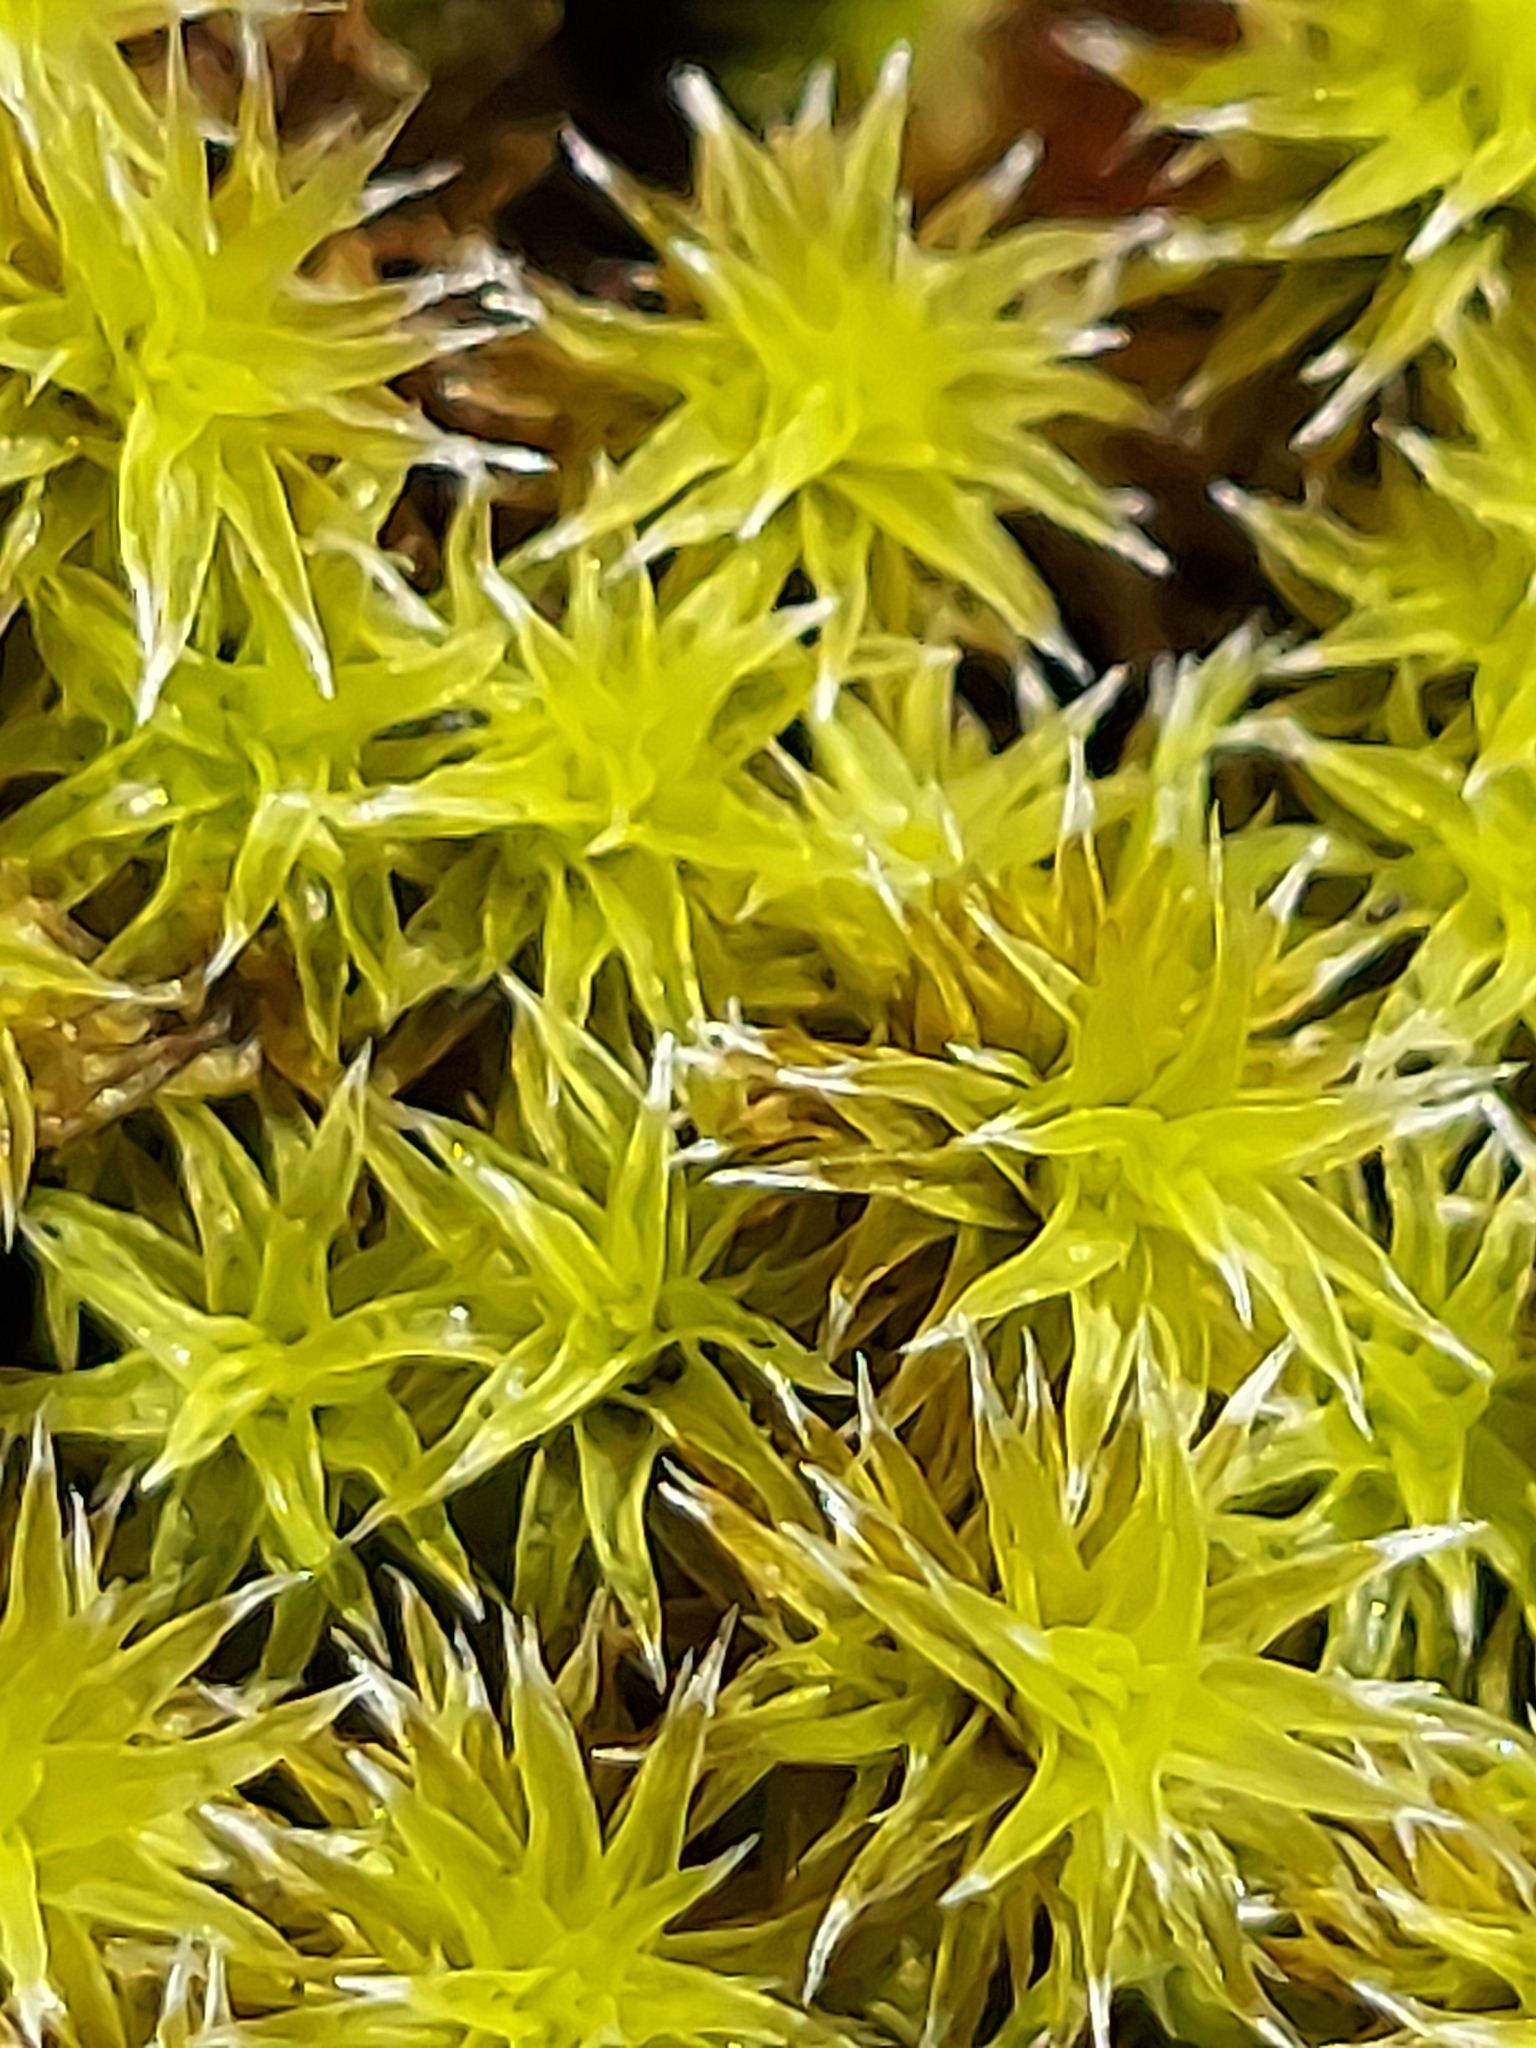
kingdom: Plantae
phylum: Bryophyta
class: Bryopsida
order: Grimmiales
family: Grimmiaceae
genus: Niphotrichum
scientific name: Niphotrichum japonicum
